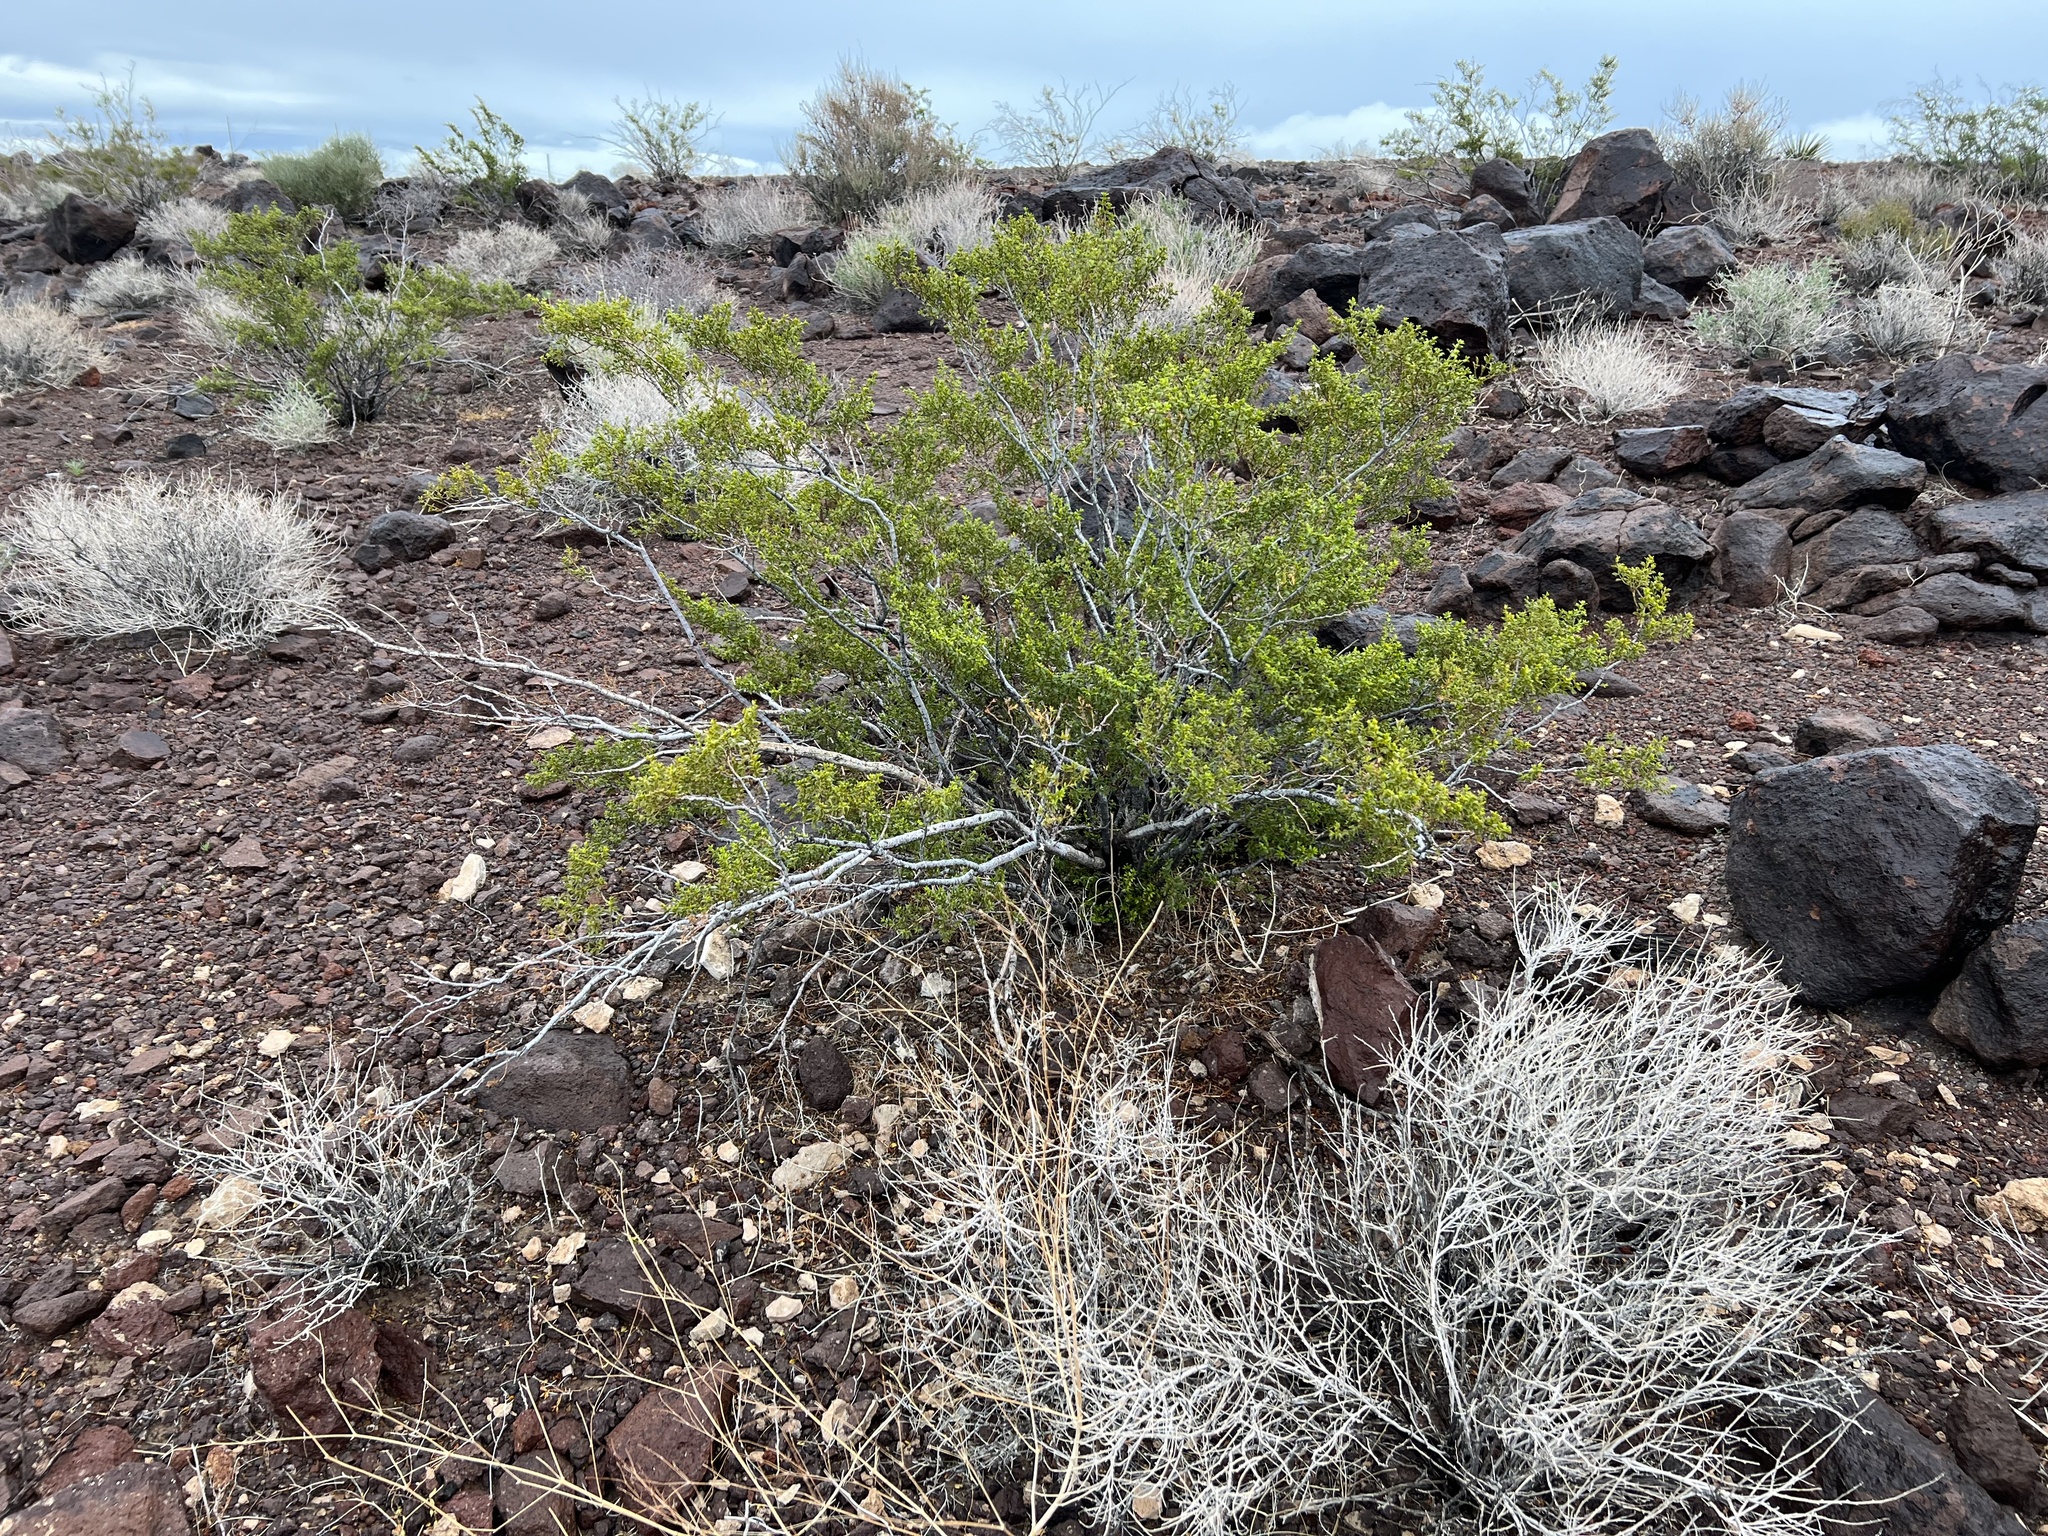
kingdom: Plantae
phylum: Tracheophyta
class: Magnoliopsida
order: Zygophyllales
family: Zygophyllaceae
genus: Larrea
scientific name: Larrea tridentata
